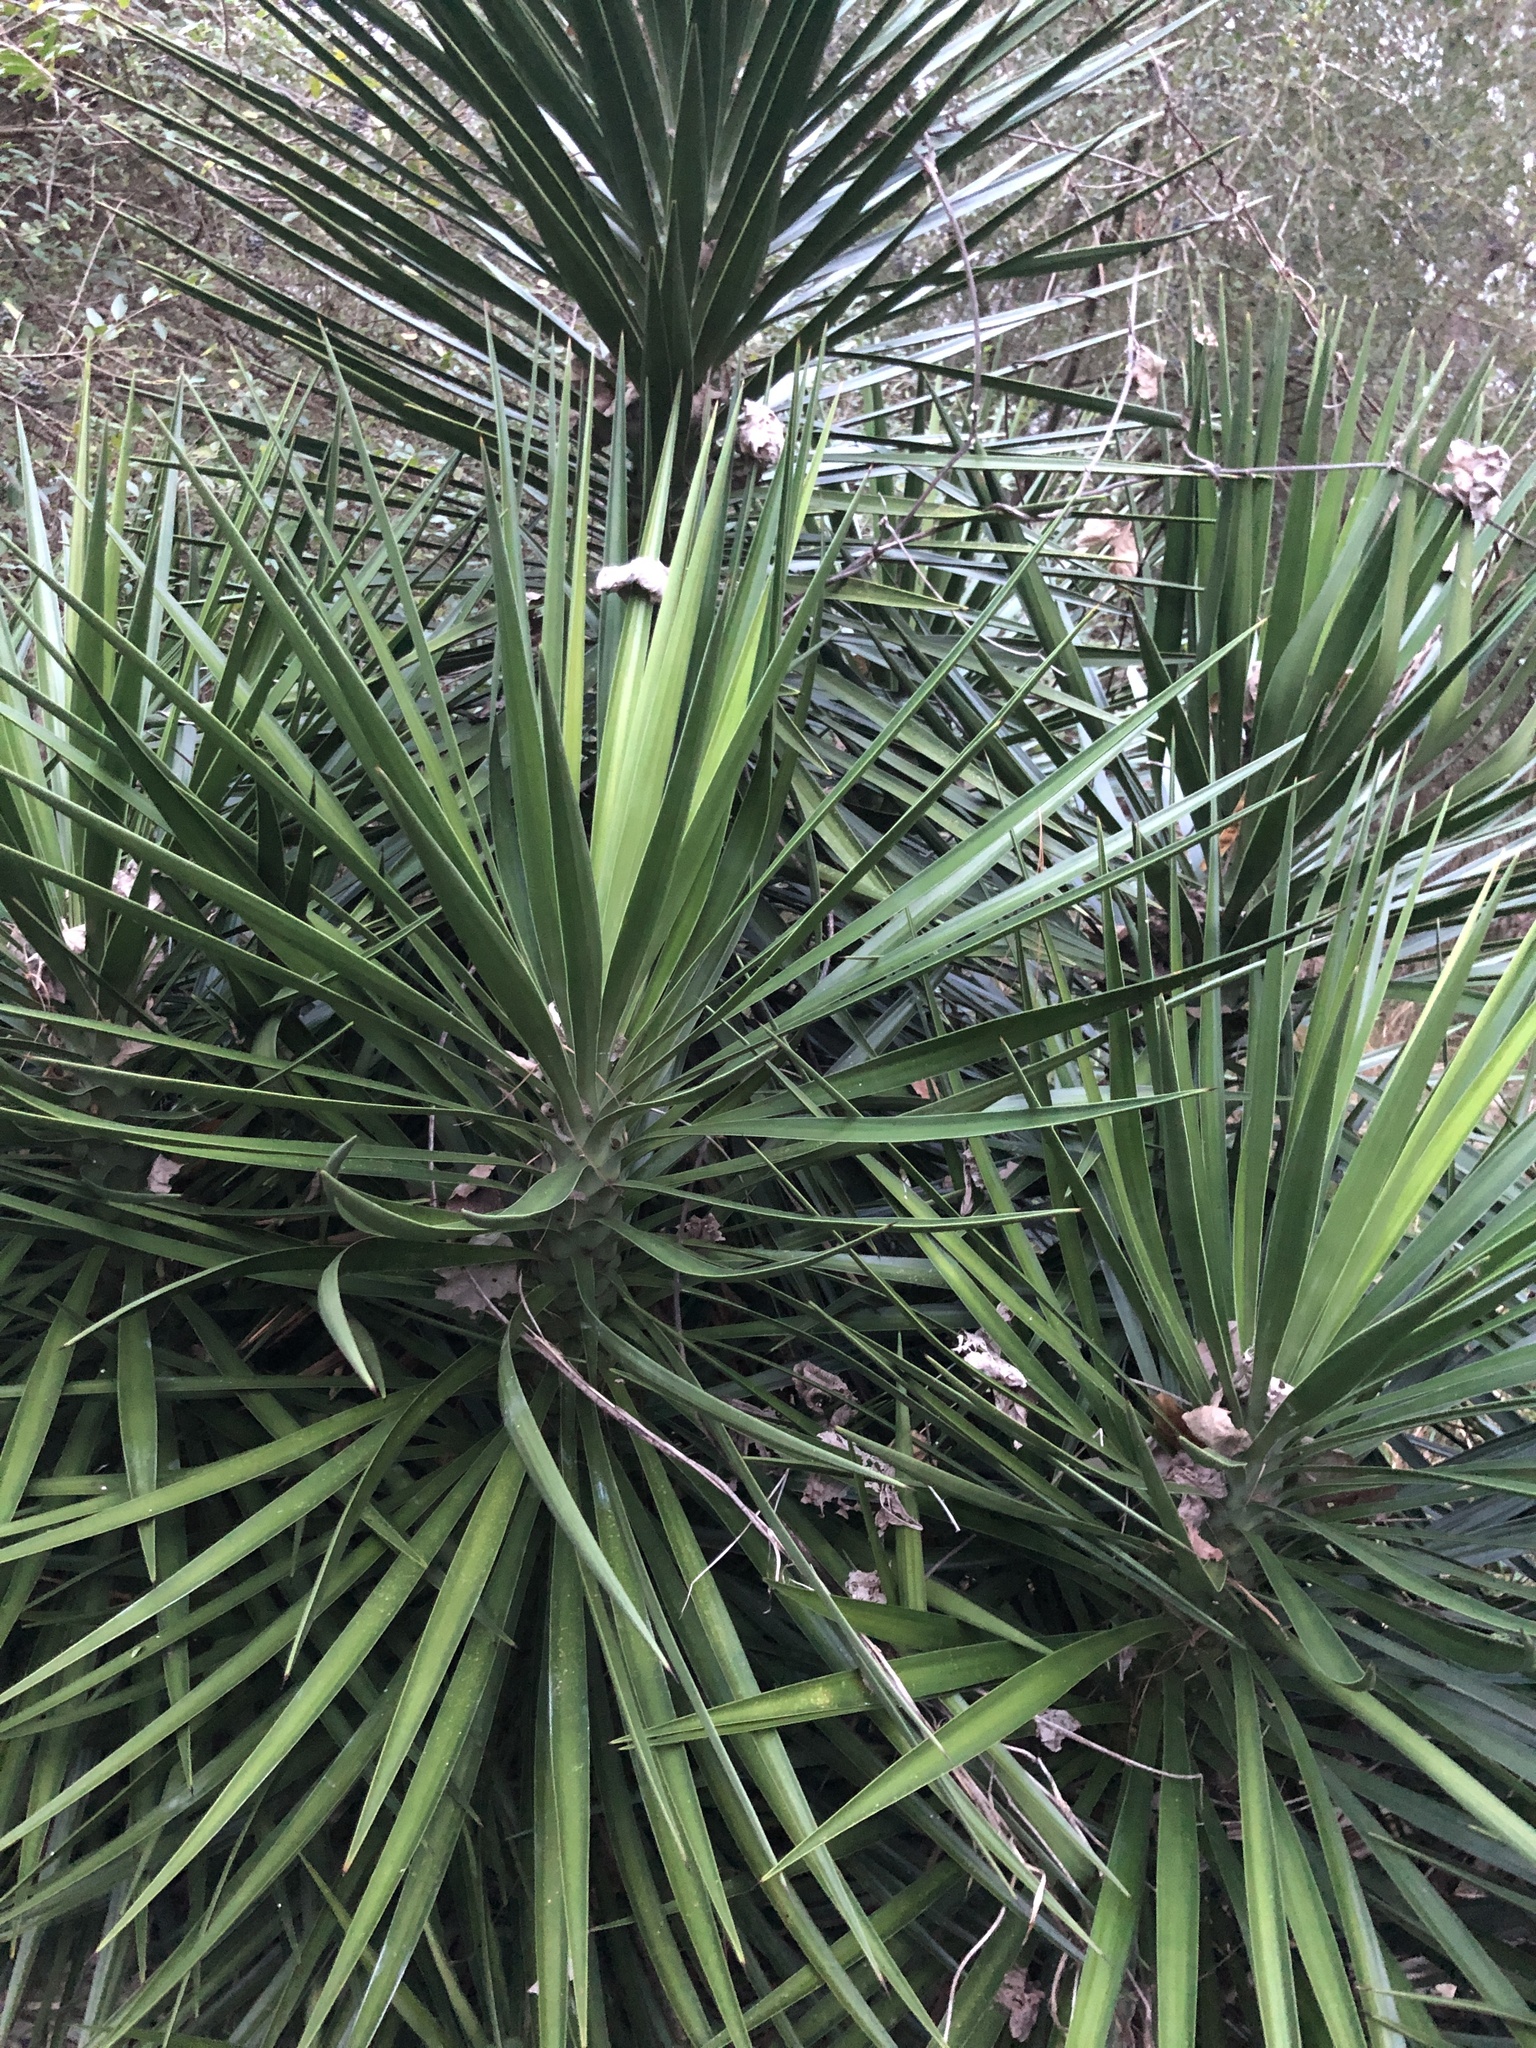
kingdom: Plantae
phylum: Tracheophyta
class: Liliopsida
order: Asparagales
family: Asparagaceae
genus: Yucca
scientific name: Yucca aloifolia
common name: Aloe yucca
